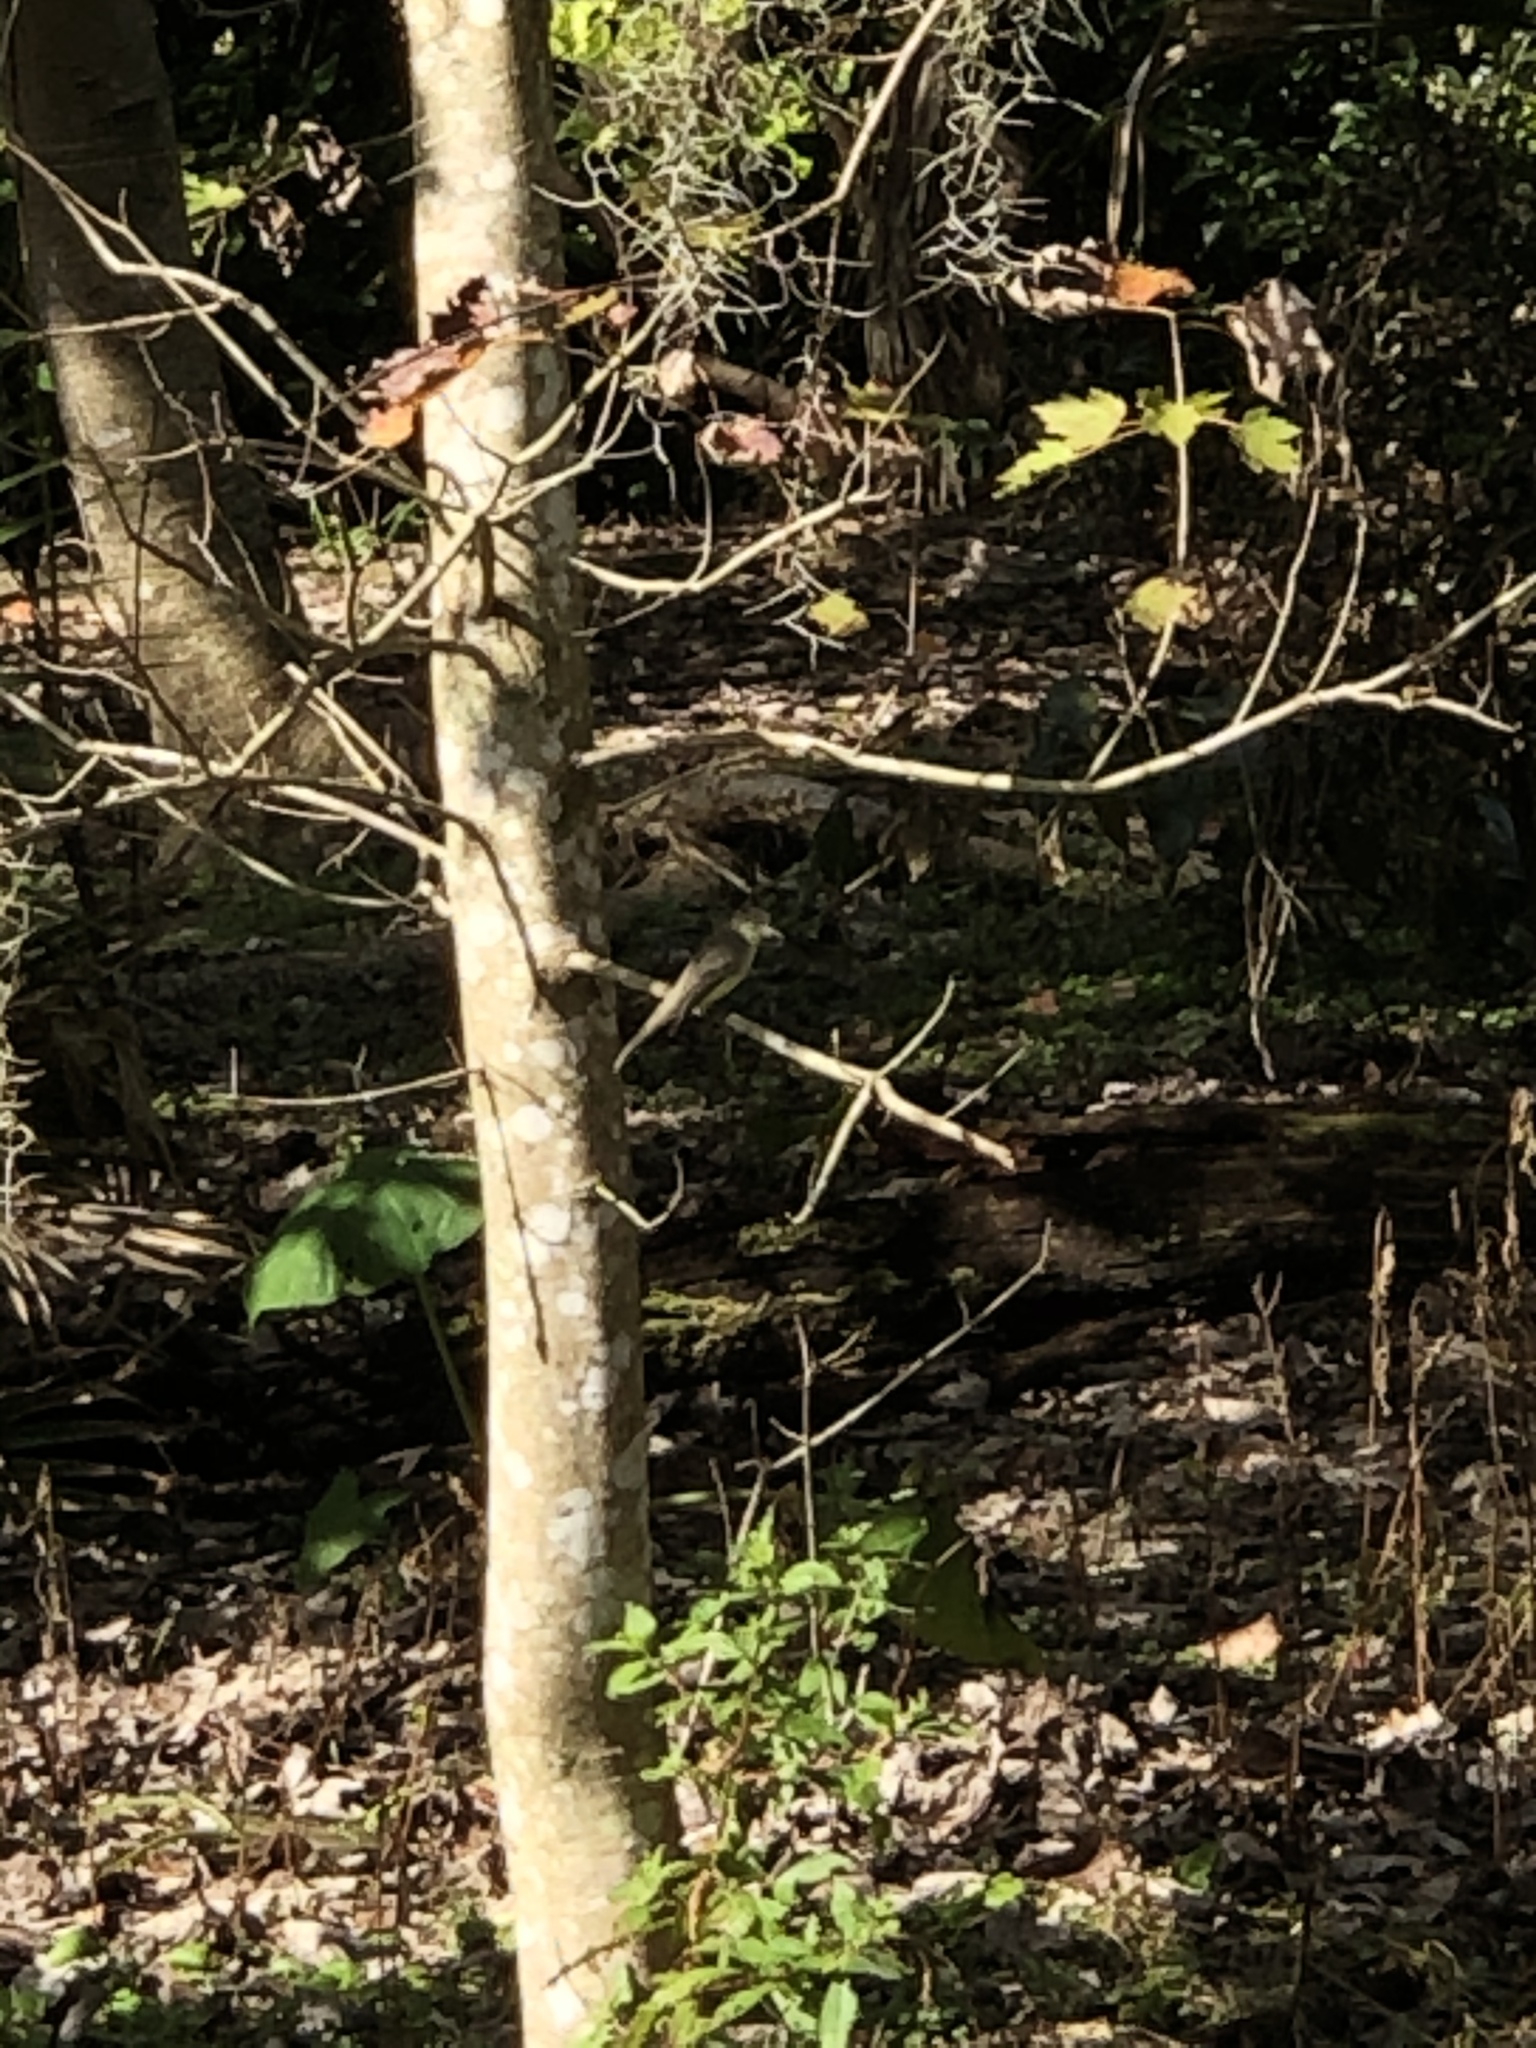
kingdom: Animalia
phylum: Chordata
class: Aves
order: Passeriformes
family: Tyrannidae
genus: Sayornis
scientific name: Sayornis phoebe
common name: Eastern phoebe
